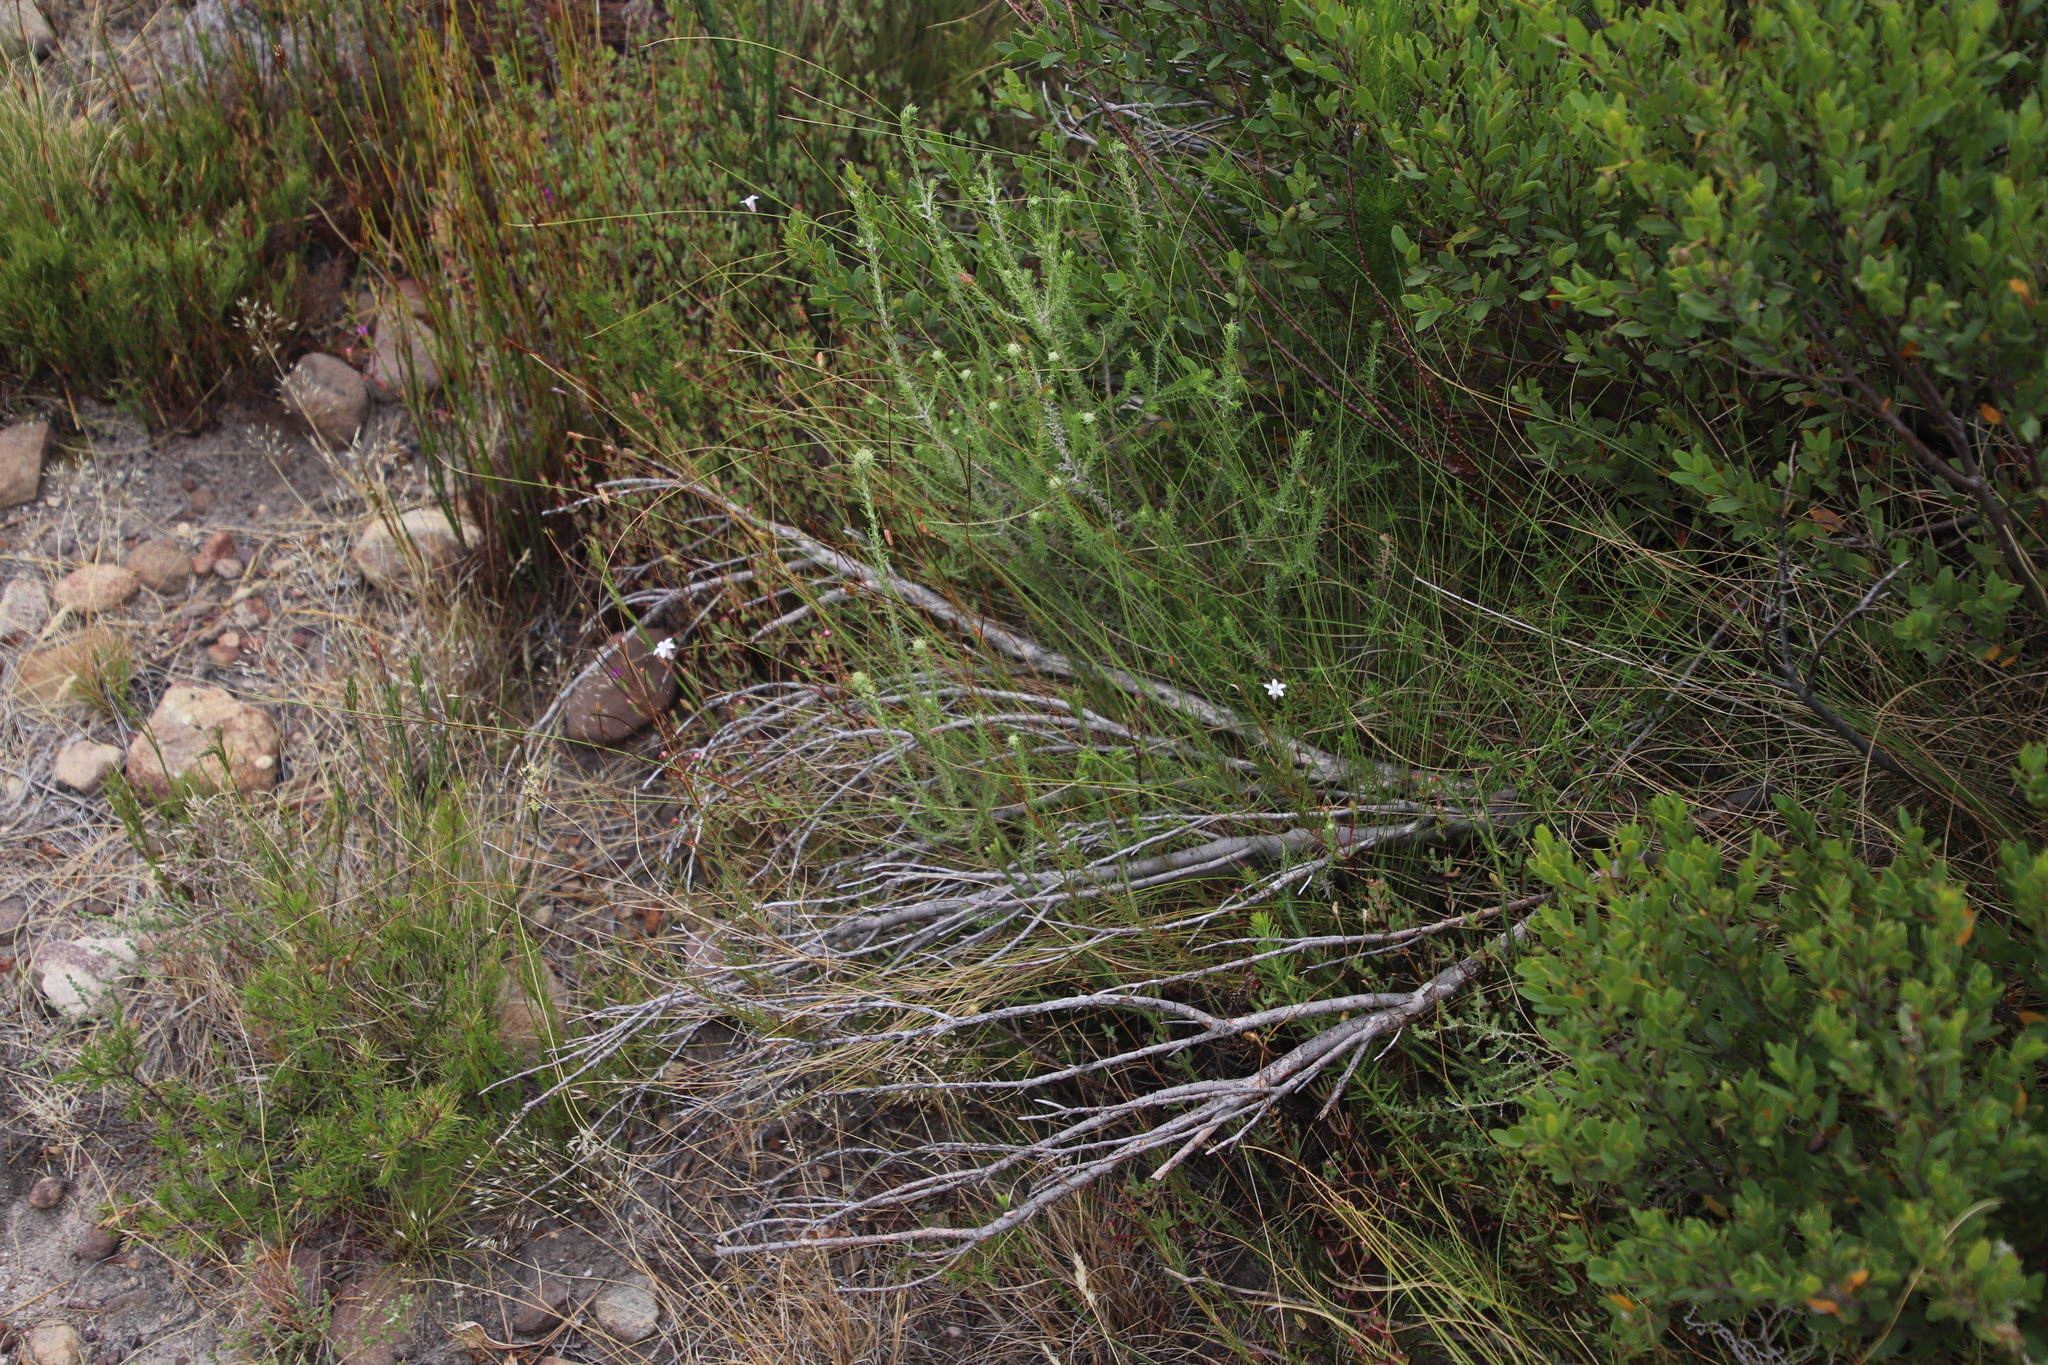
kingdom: Plantae
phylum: Tracheophyta
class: Magnoliopsida
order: Asterales
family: Campanulaceae
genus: Prismatocarpus
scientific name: Prismatocarpus brevilobus
